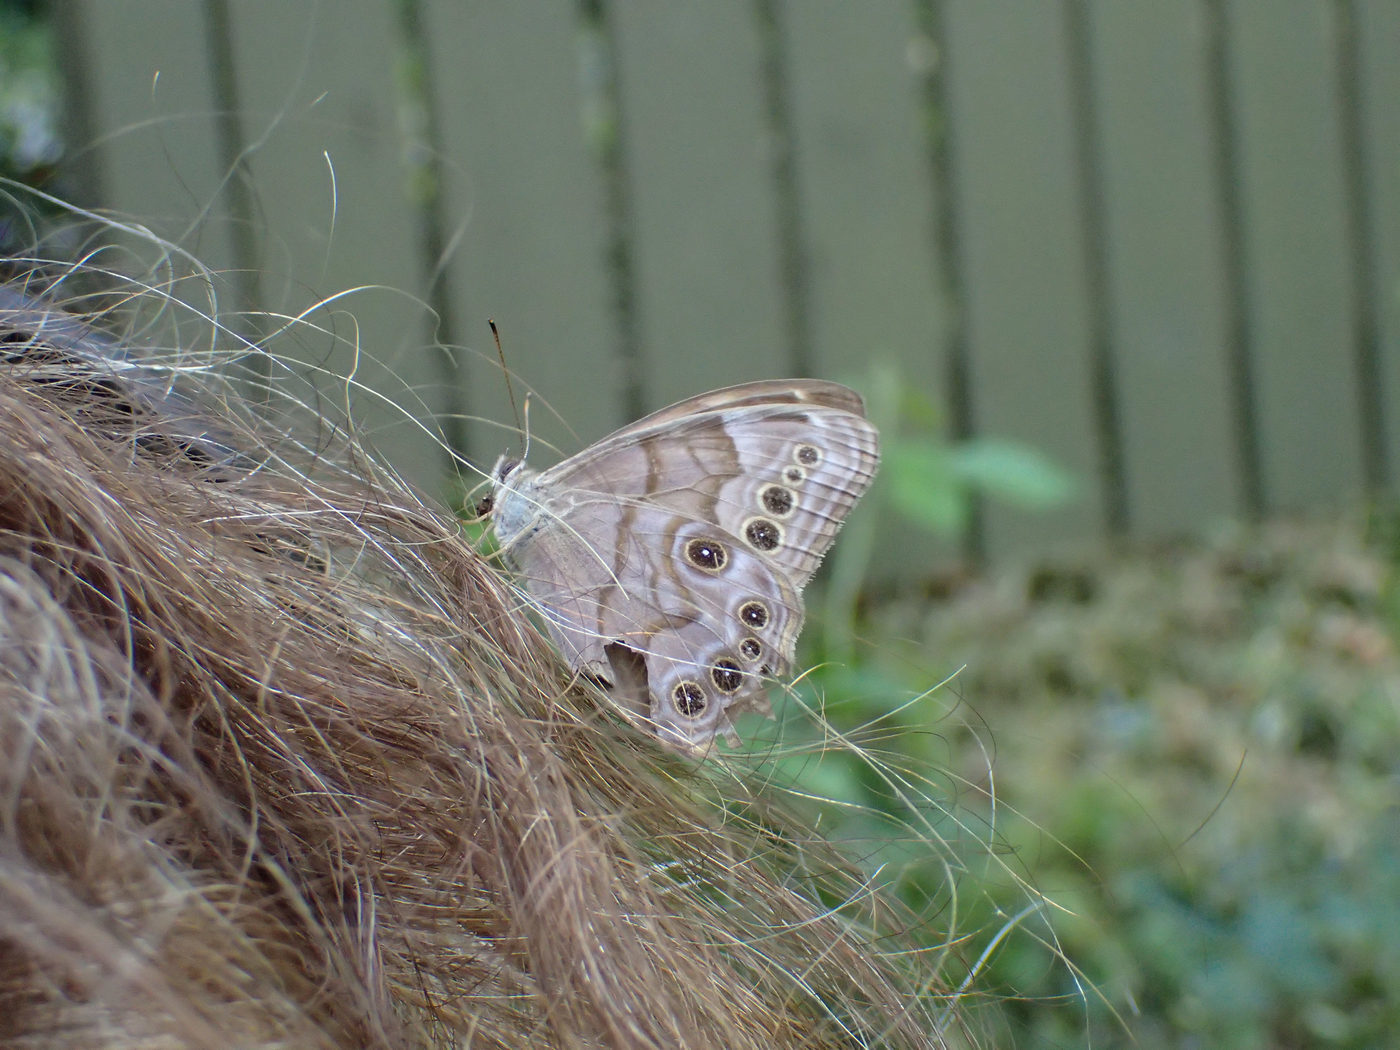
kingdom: Animalia
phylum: Arthropoda
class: Insecta
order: Lepidoptera
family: Nymphalidae
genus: Lethe
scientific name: Lethe anthedon
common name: Northern pearly-eye
